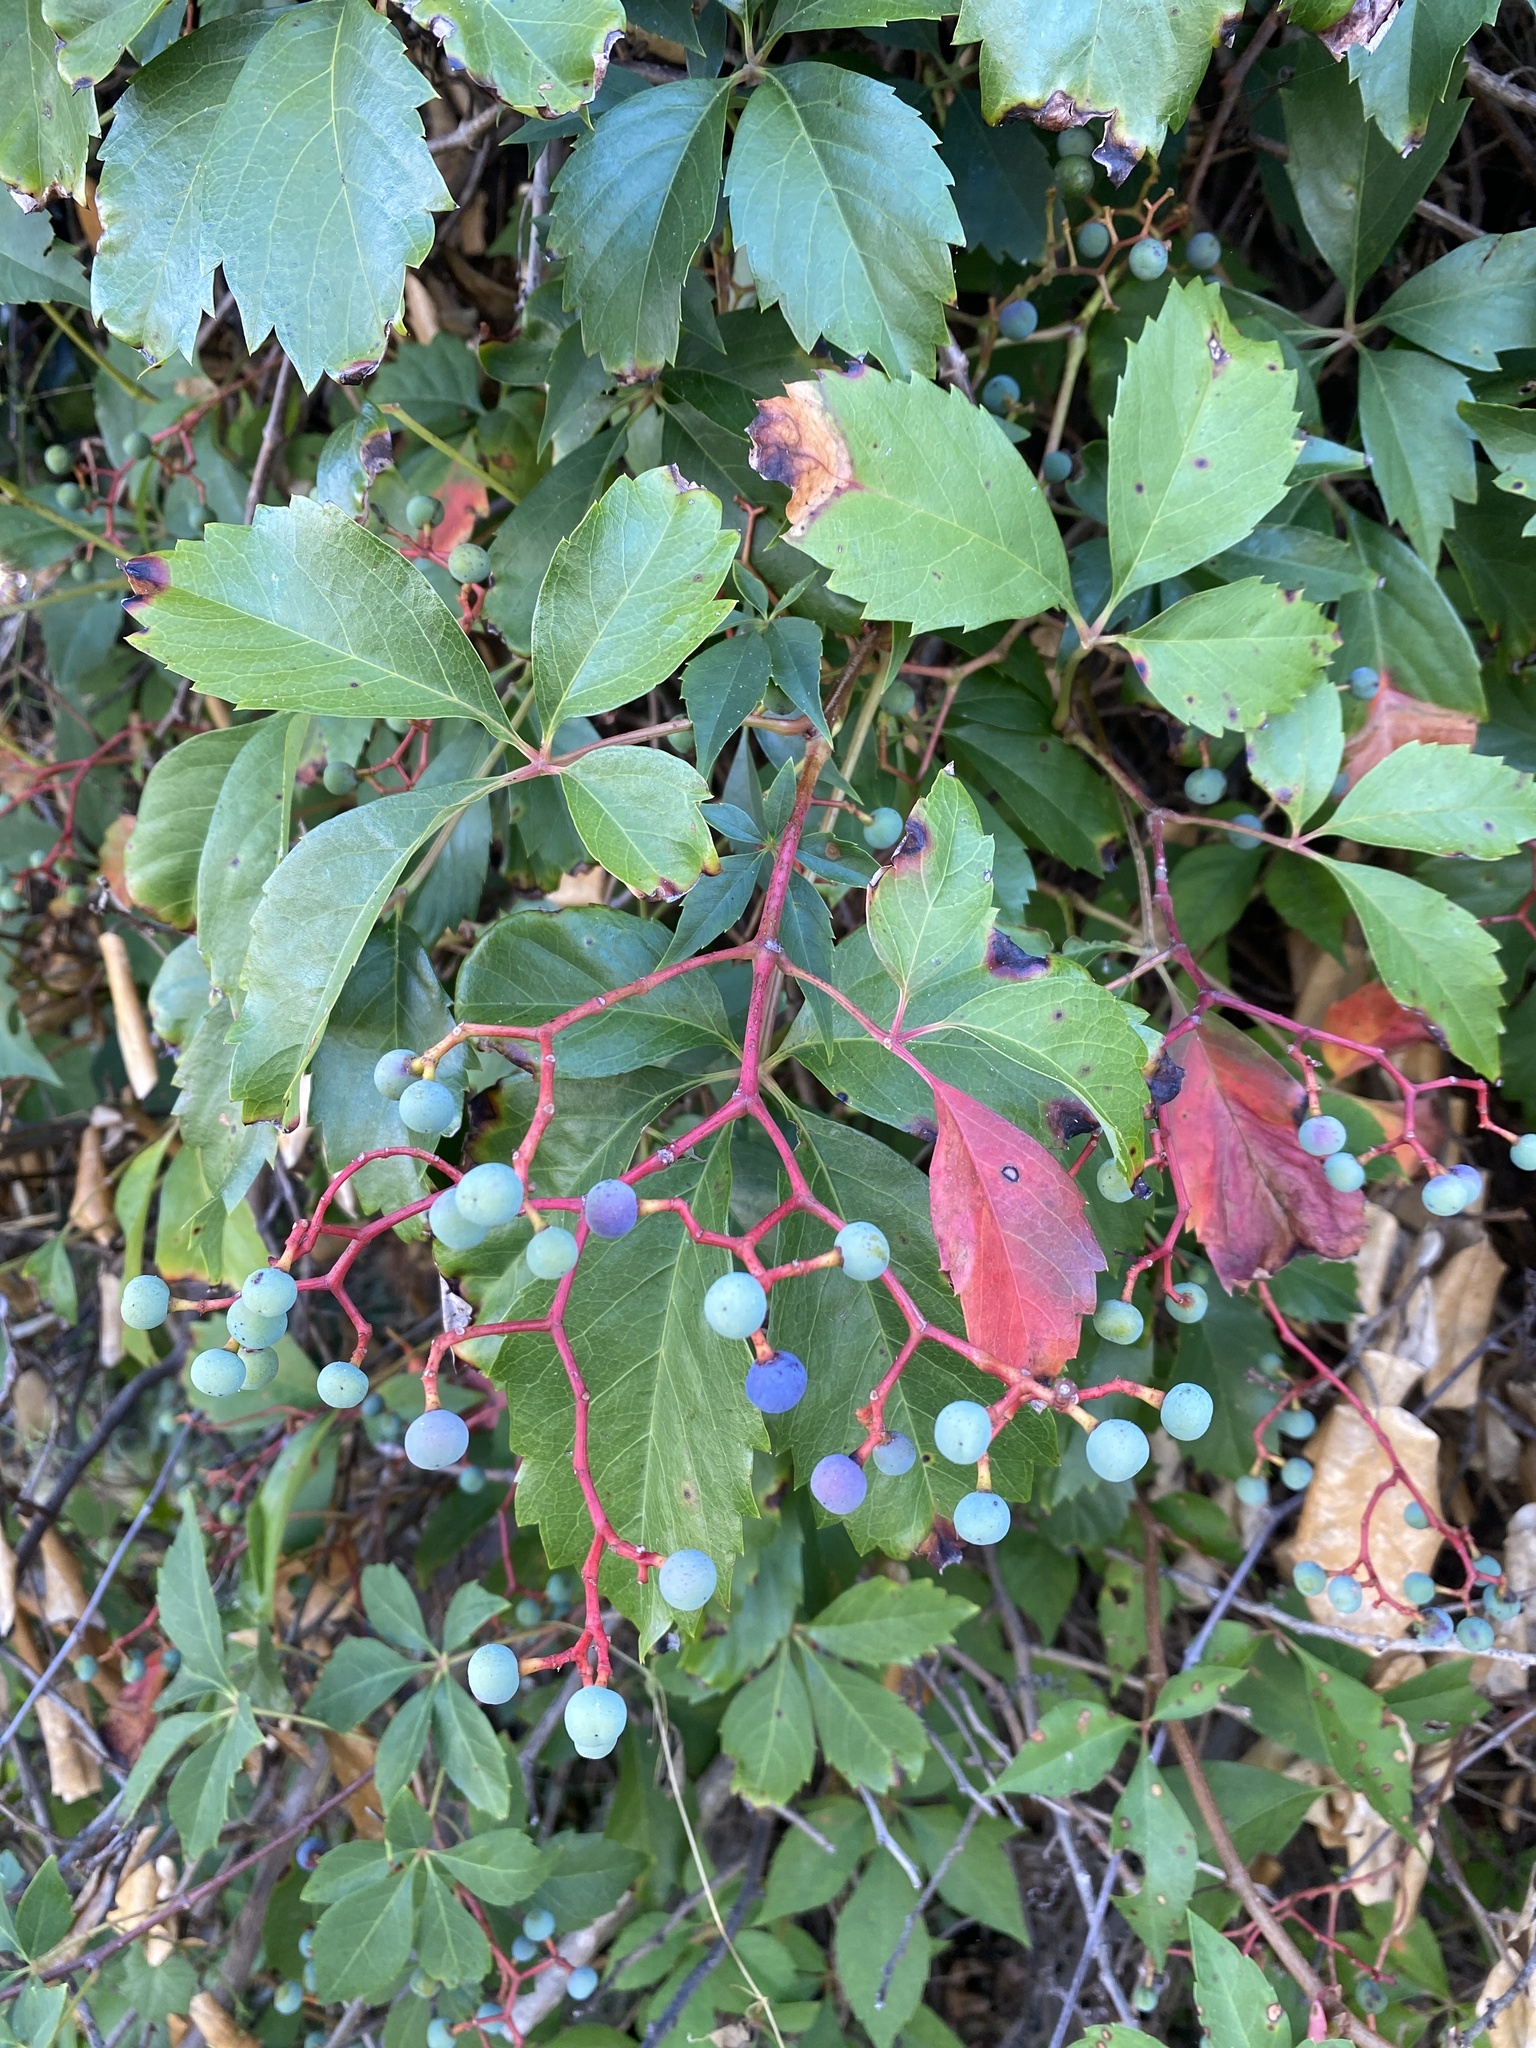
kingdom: Plantae
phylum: Tracheophyta
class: Magnoliopsida
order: Vitales
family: Vitaceae
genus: Parthenocissus
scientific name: Parthenocissus quinquefolia
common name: Virginia-creeper
